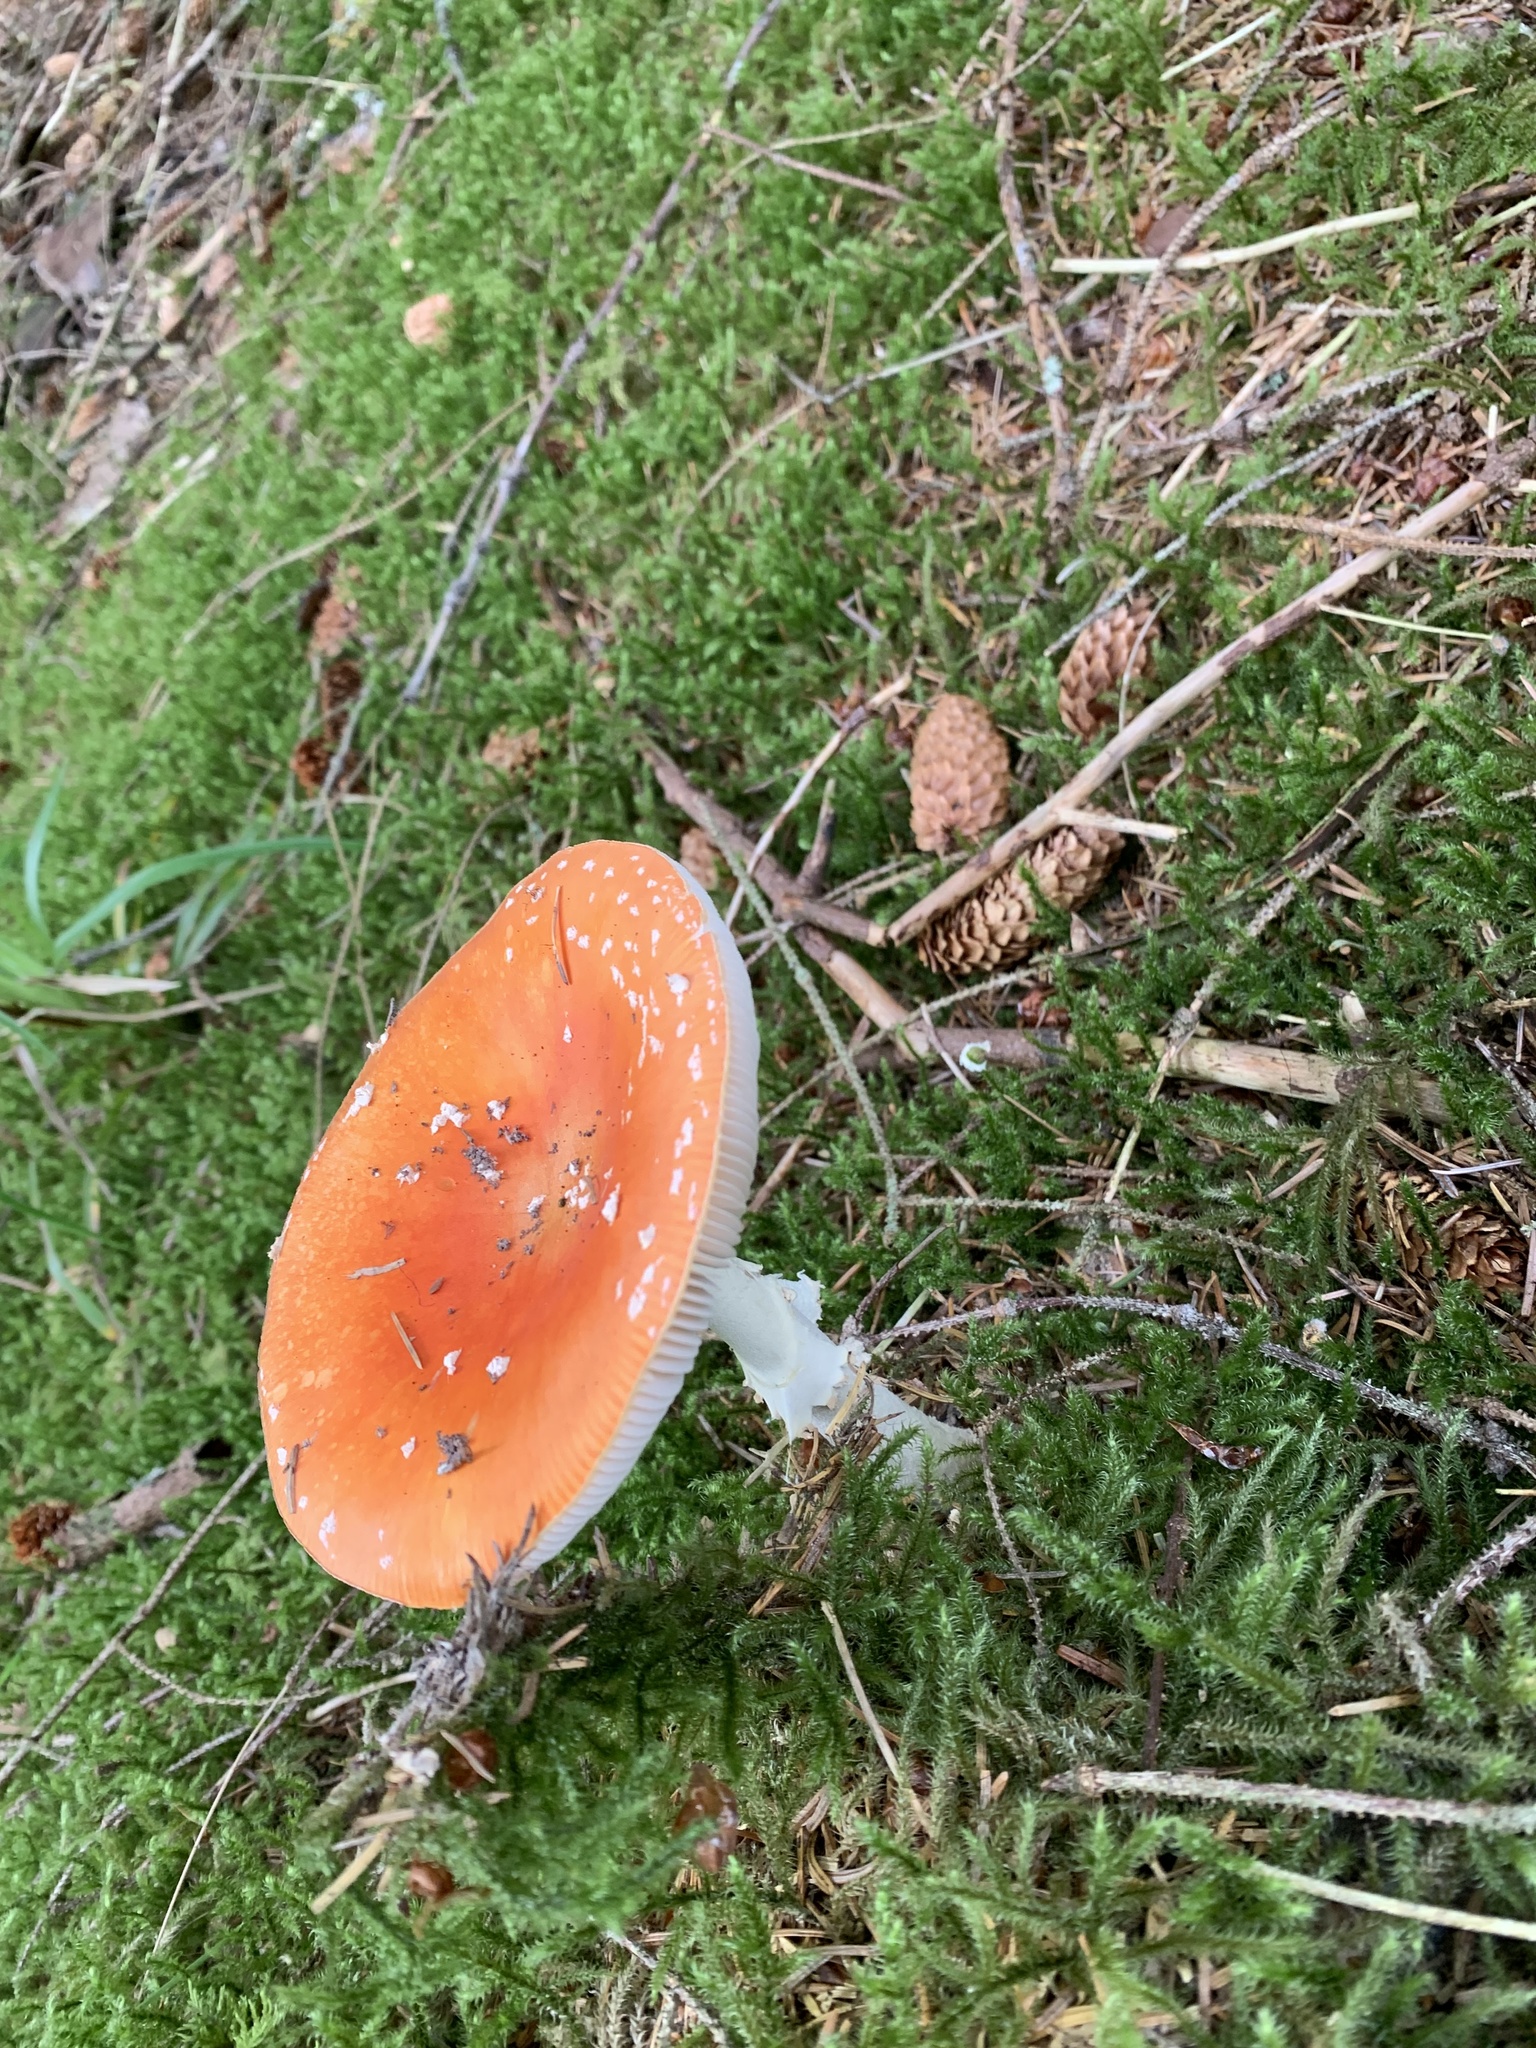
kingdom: Fungi
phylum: Basidiomycota
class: Agaricomycetes
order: Agaricales
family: Amanitaceae
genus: Amanita
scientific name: Amanita muscaria
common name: Fly agaric
